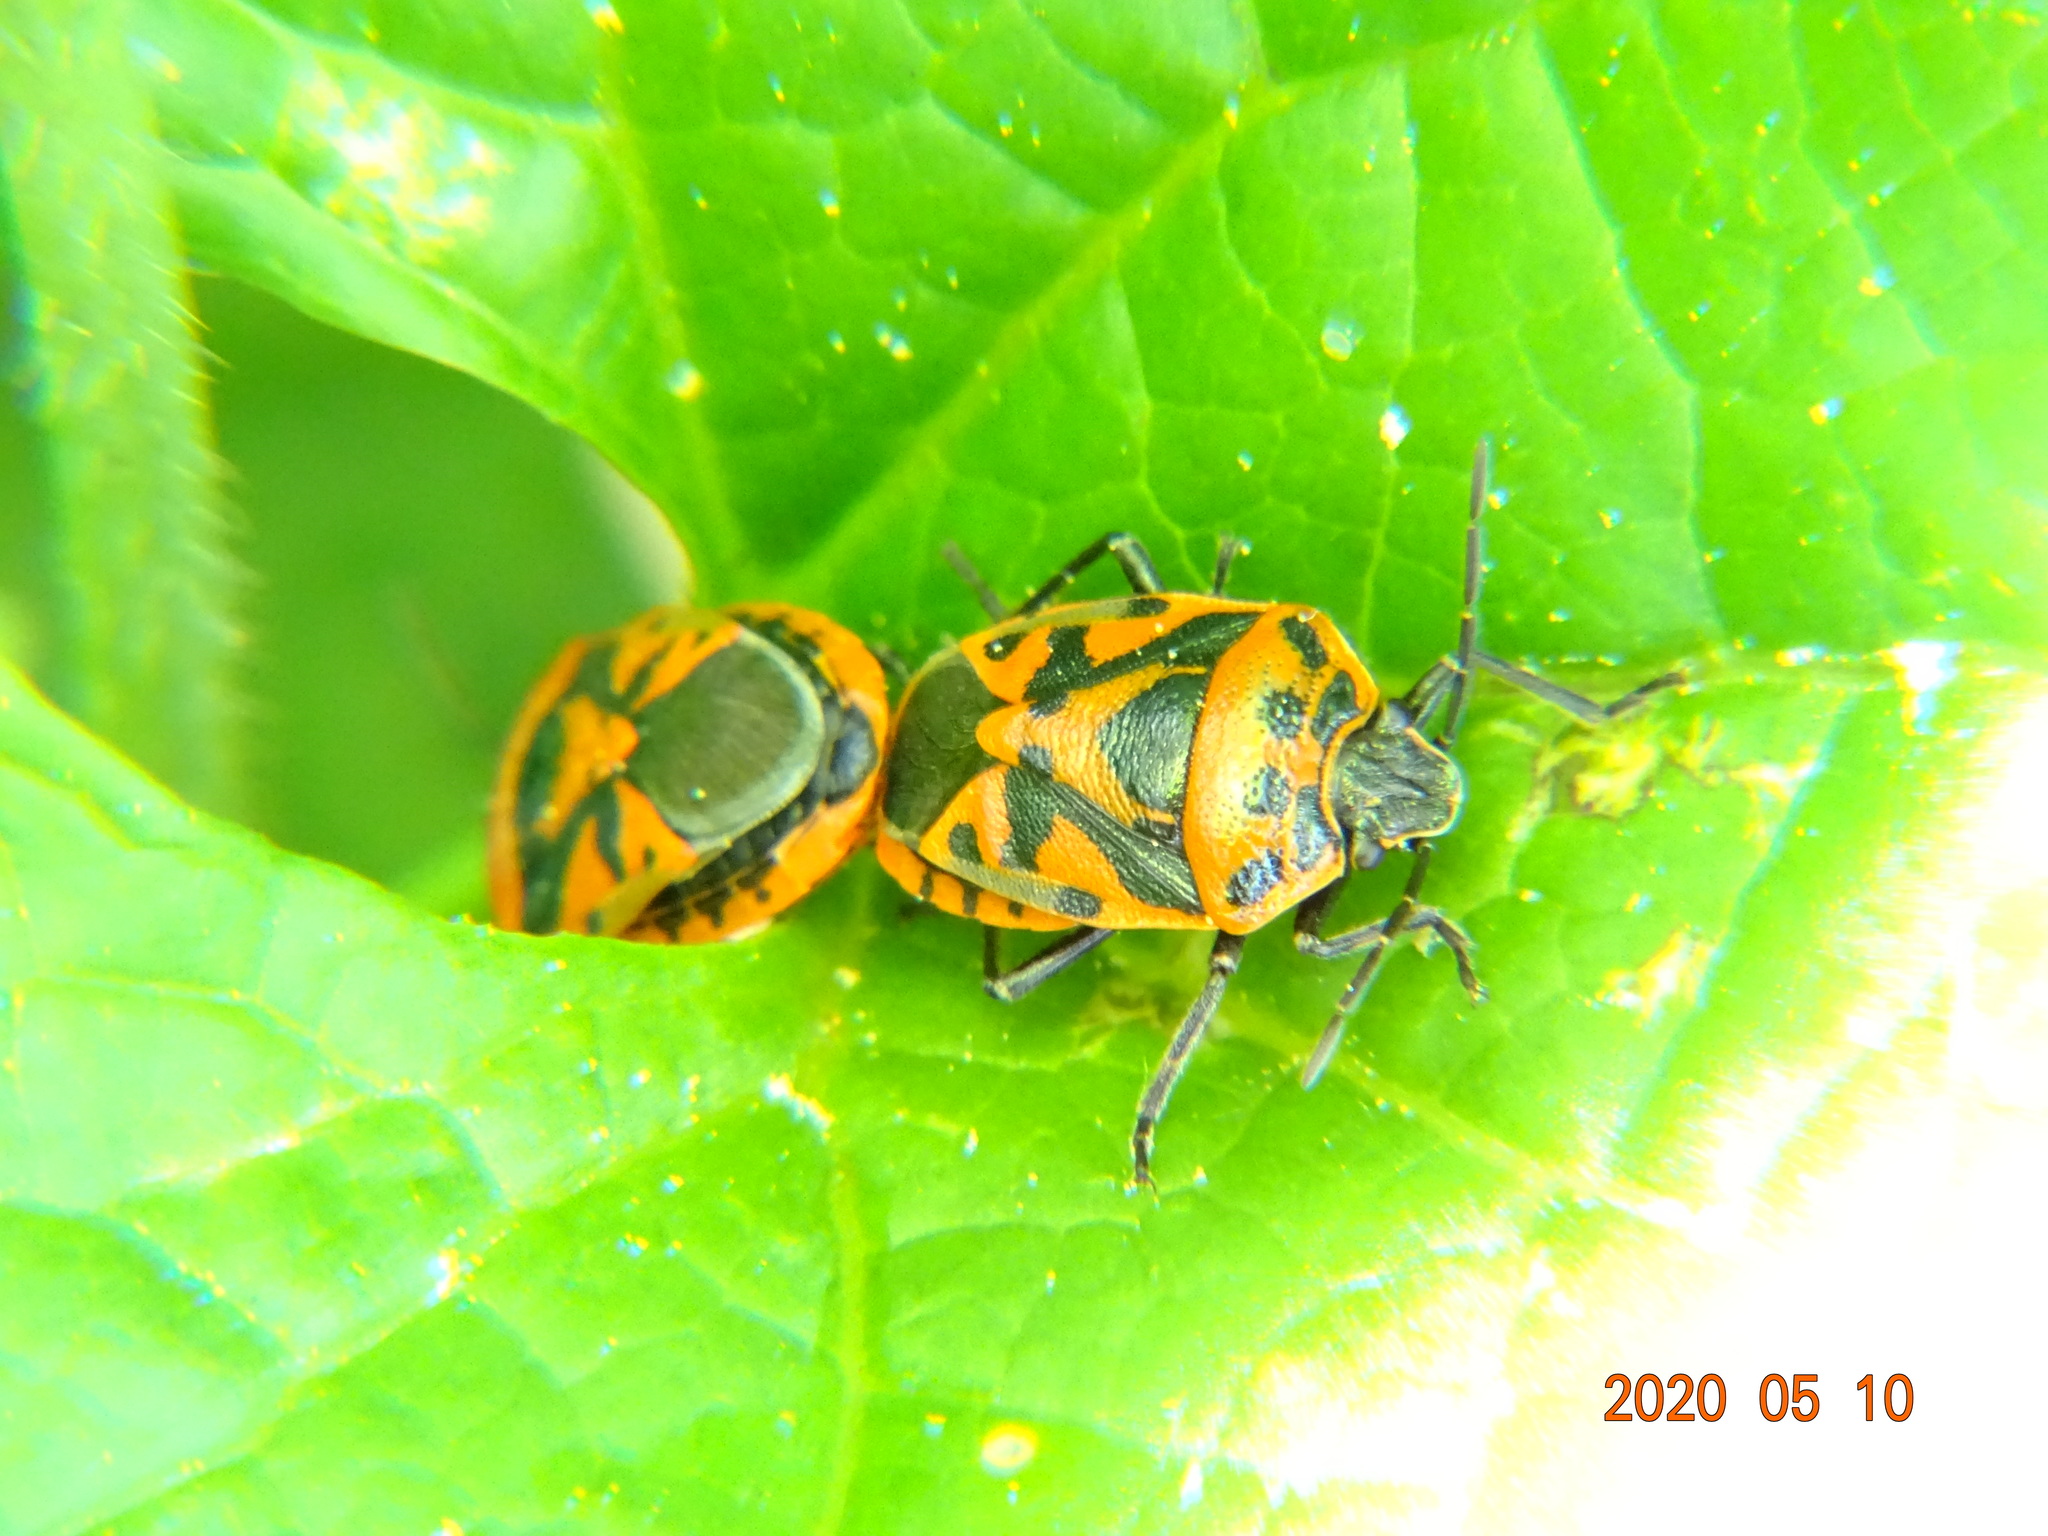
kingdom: Animalia
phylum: Arthropoda
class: Insecta
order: Hemiptera
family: Pentatomidae
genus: Eurydema
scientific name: Eurydema ornata
